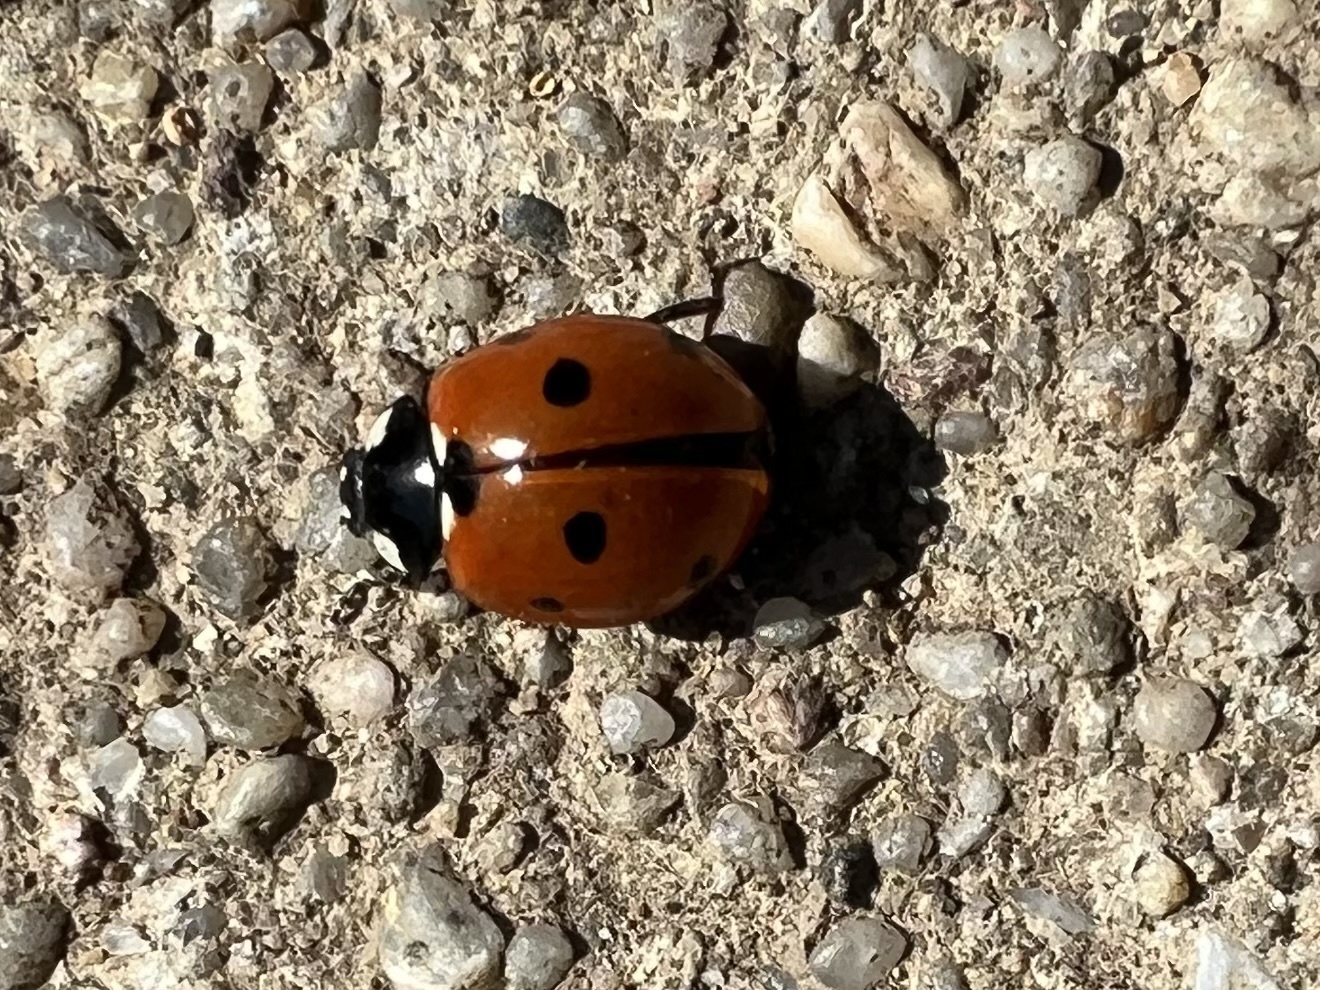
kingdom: Animalia
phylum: Arthropoda
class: Insecta
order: Coleoptera
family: Coccinellidae
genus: Coccinella
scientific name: Coccinella septempunctata
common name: Sevenspotted lady beetle
